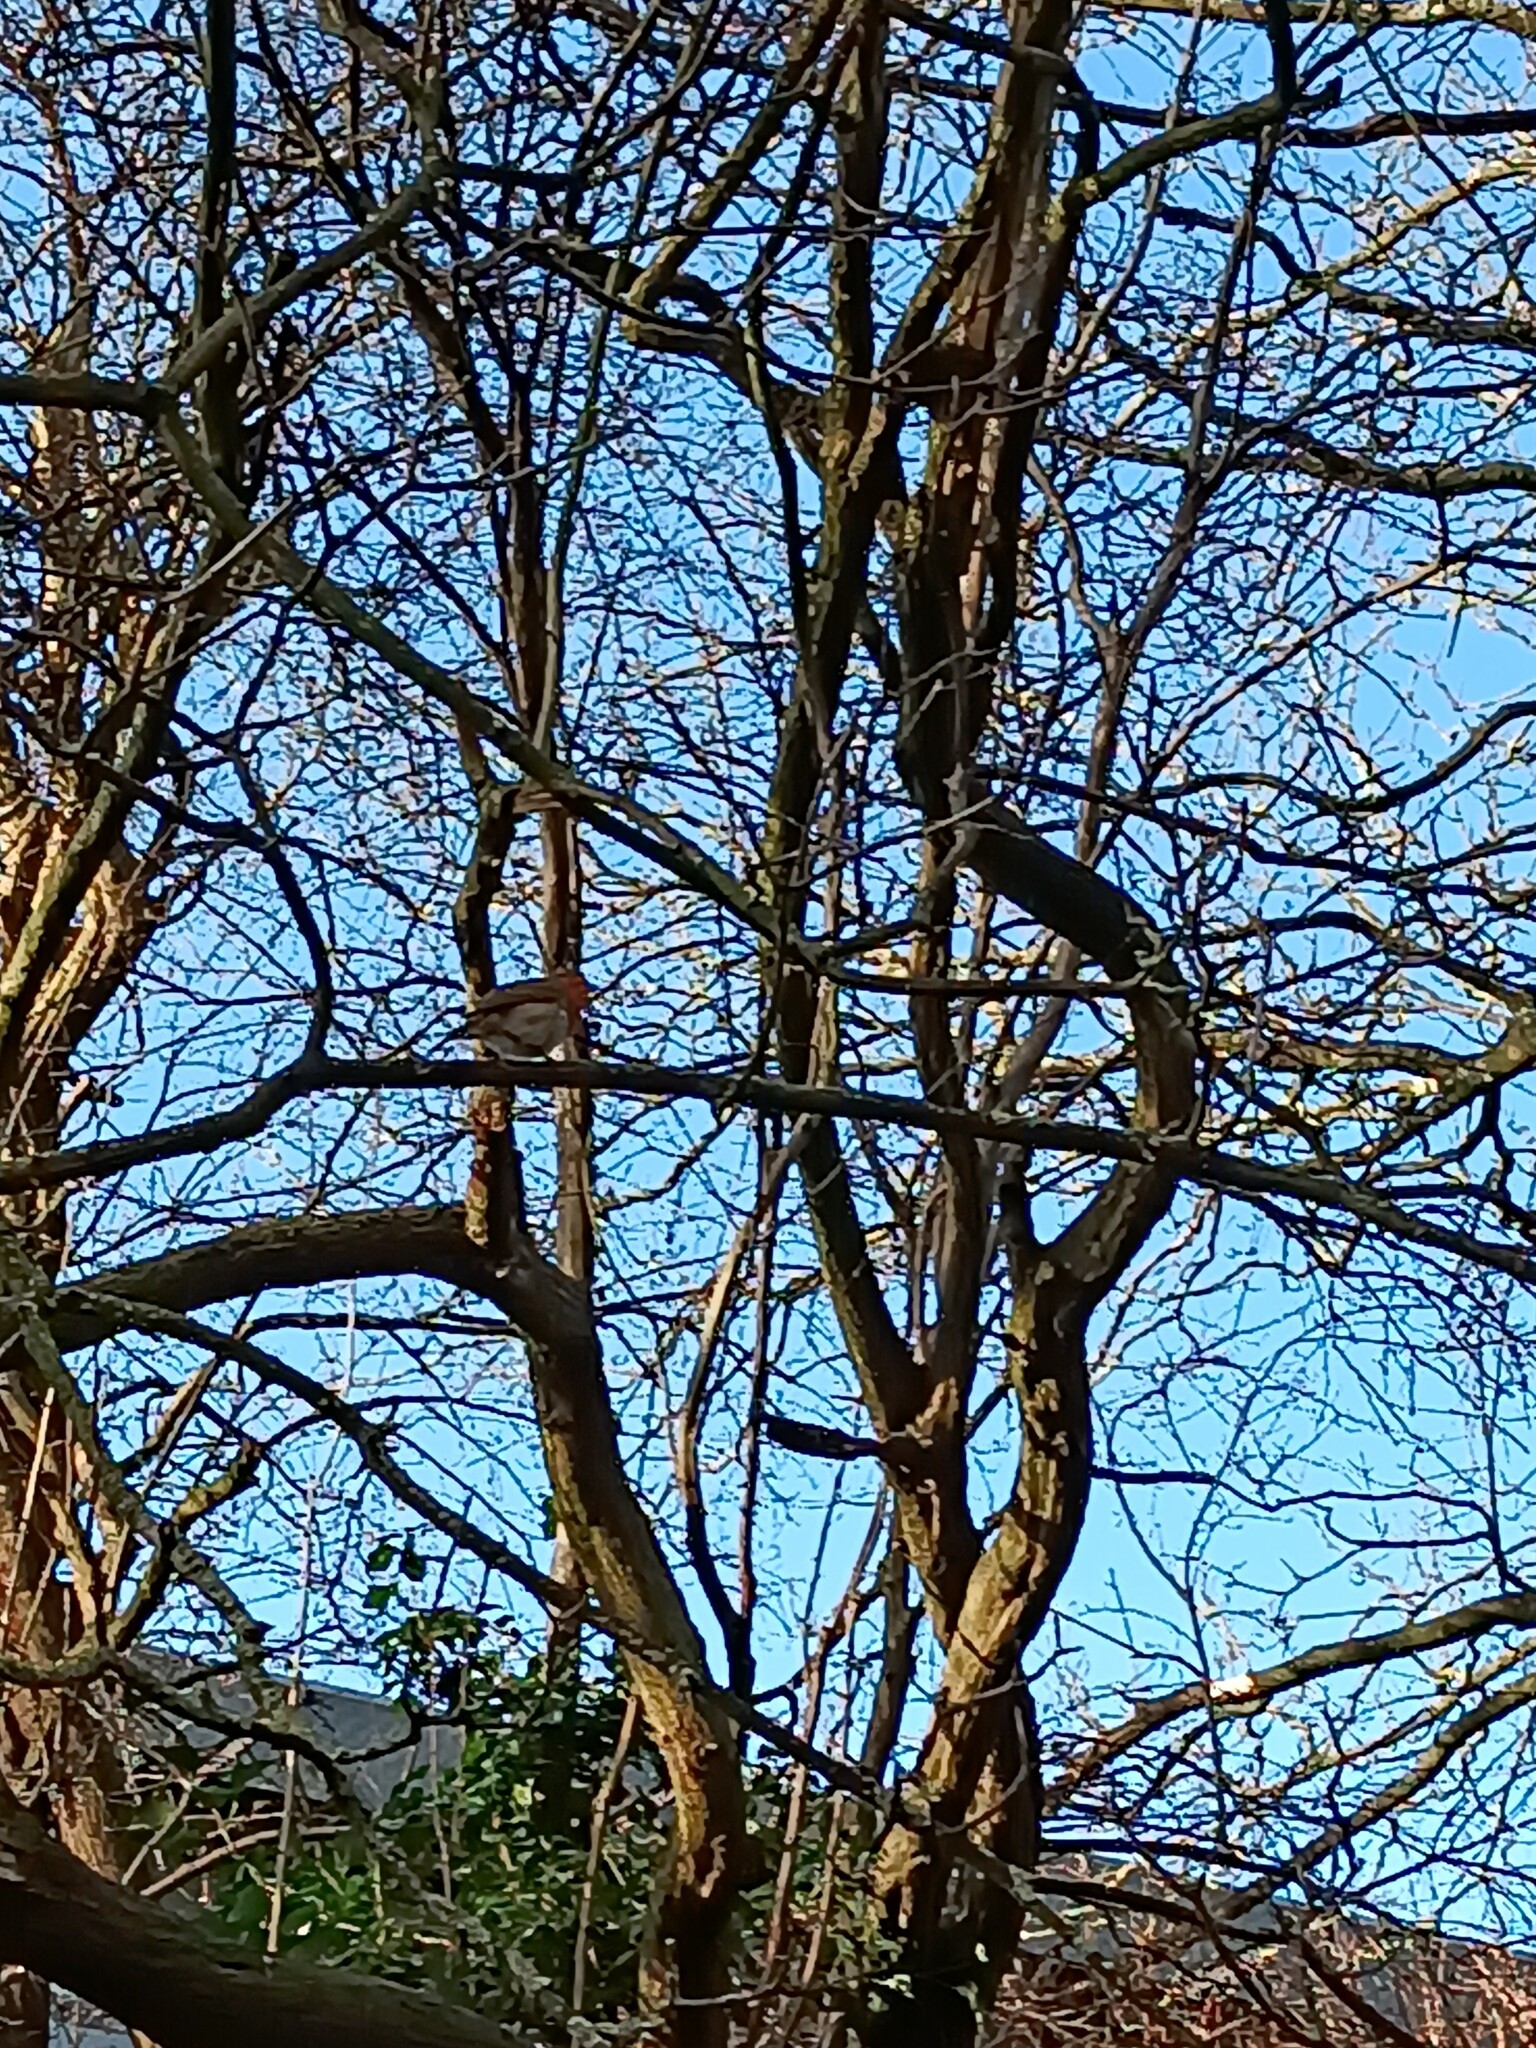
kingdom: Animalia
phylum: Chordata
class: Aves
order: Passeriformes
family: Muscicapidae
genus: Erithacus
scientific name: Erithacus rubecula
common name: European robin
